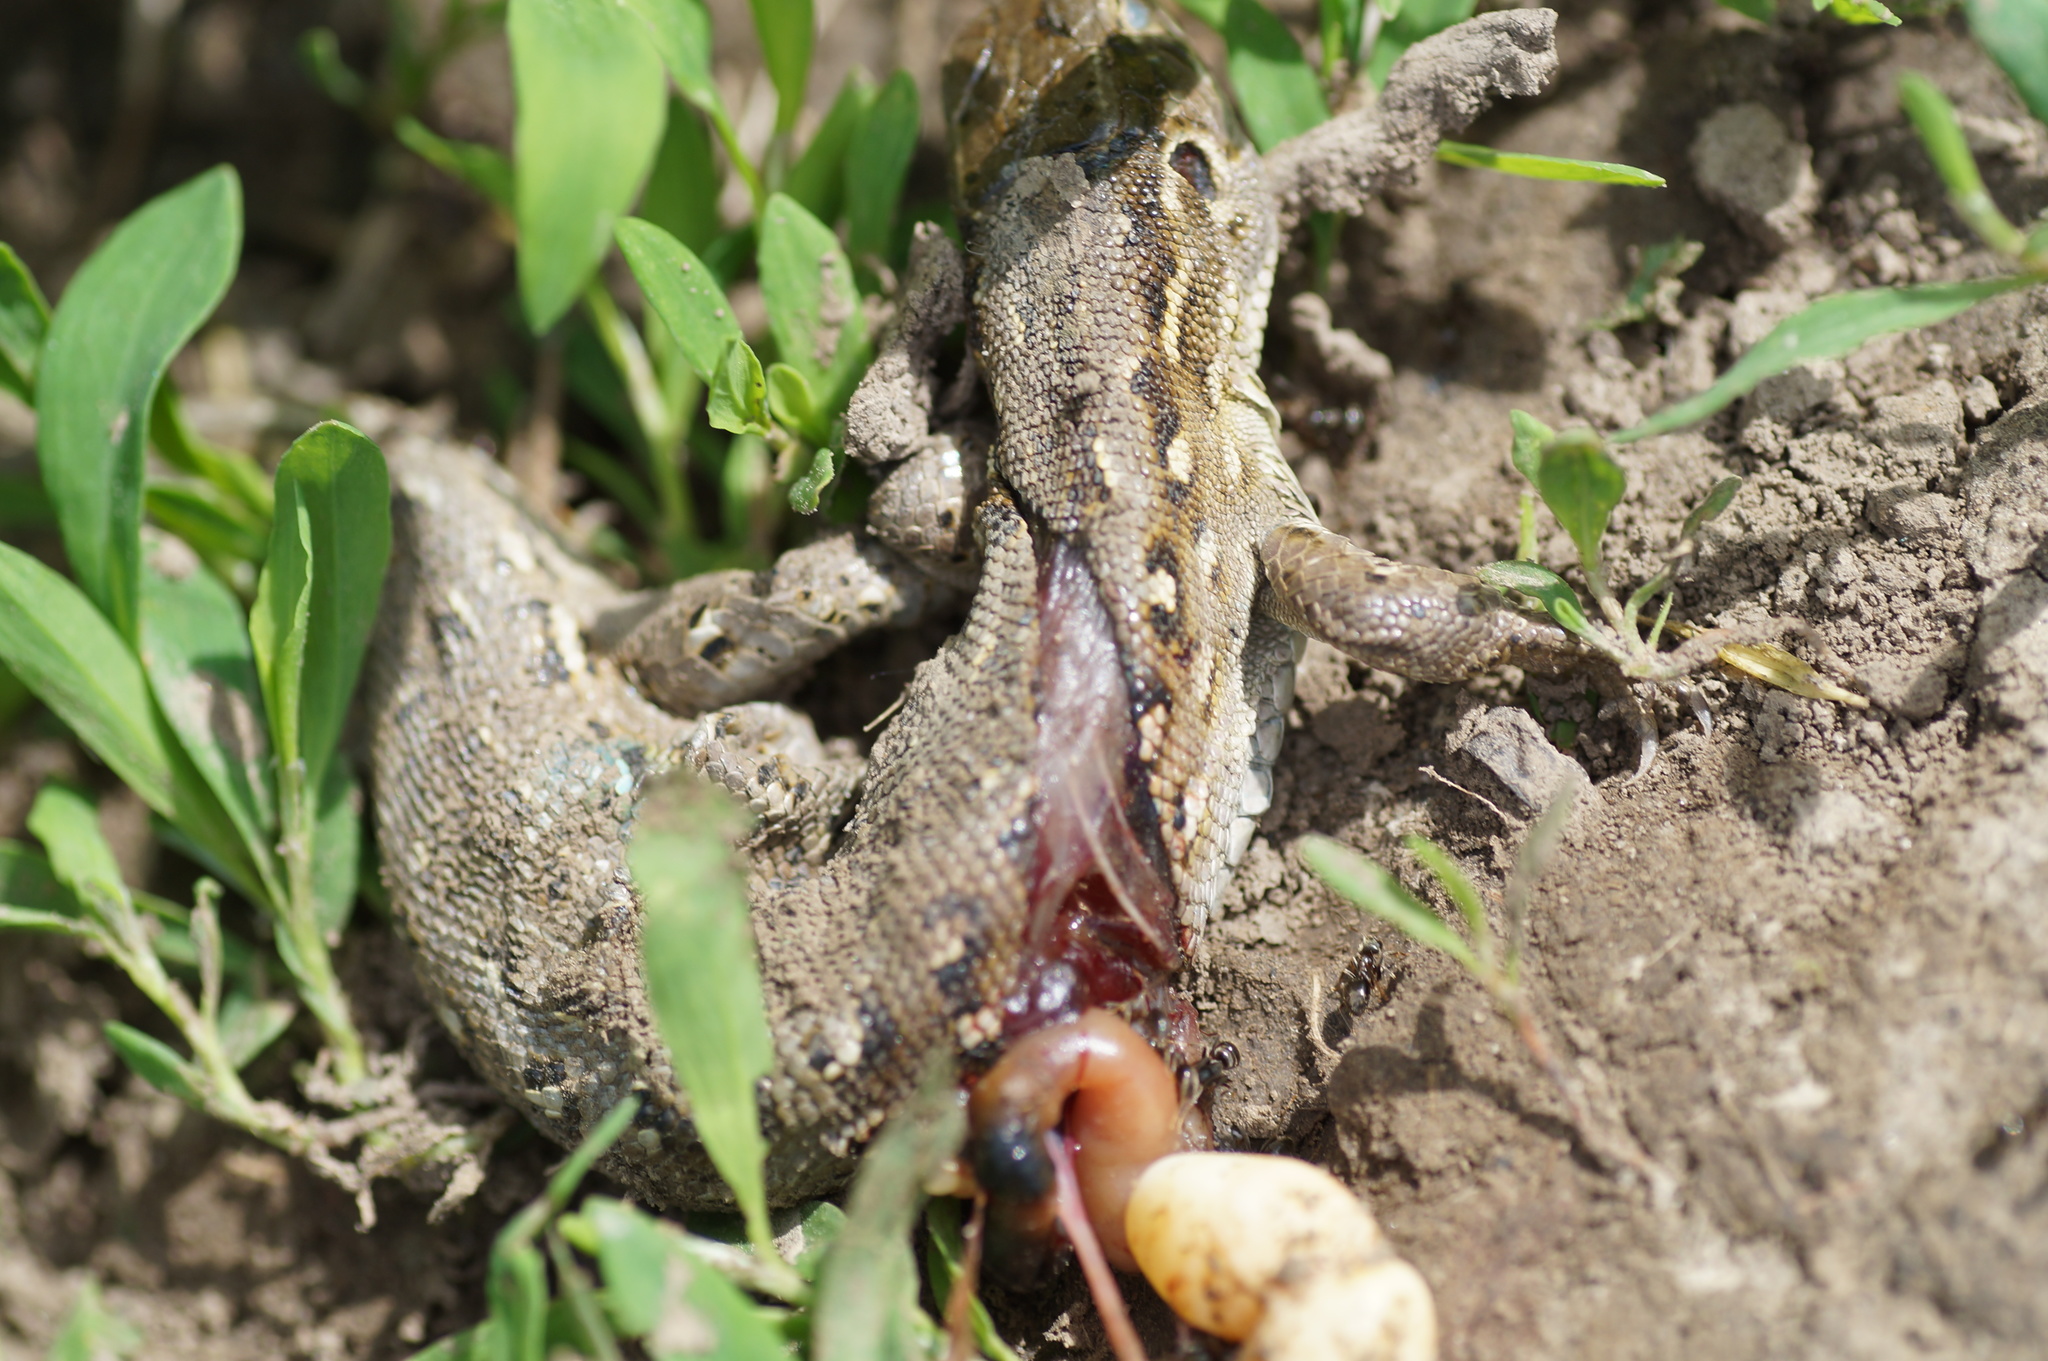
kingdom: Animalia
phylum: Chordata
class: Squamata
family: Lacertidae
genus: Lacerta
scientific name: Lacerta agilis
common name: Sand lizard
